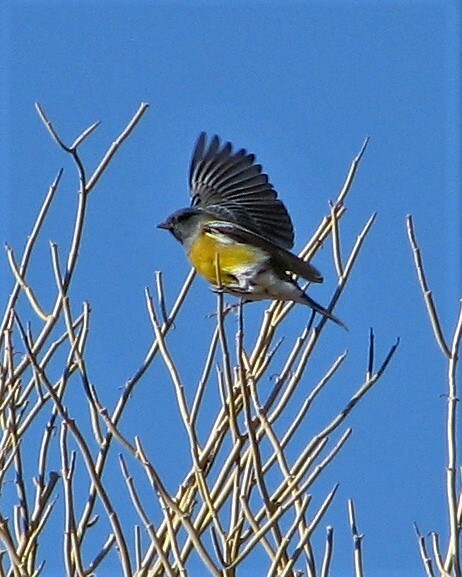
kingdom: Animalia
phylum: Chordata
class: Aves
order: Passeriformes
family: Thraupidae
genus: Phrygilus
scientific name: Phrygilus gayi
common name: Grey-hooded sierra finch
